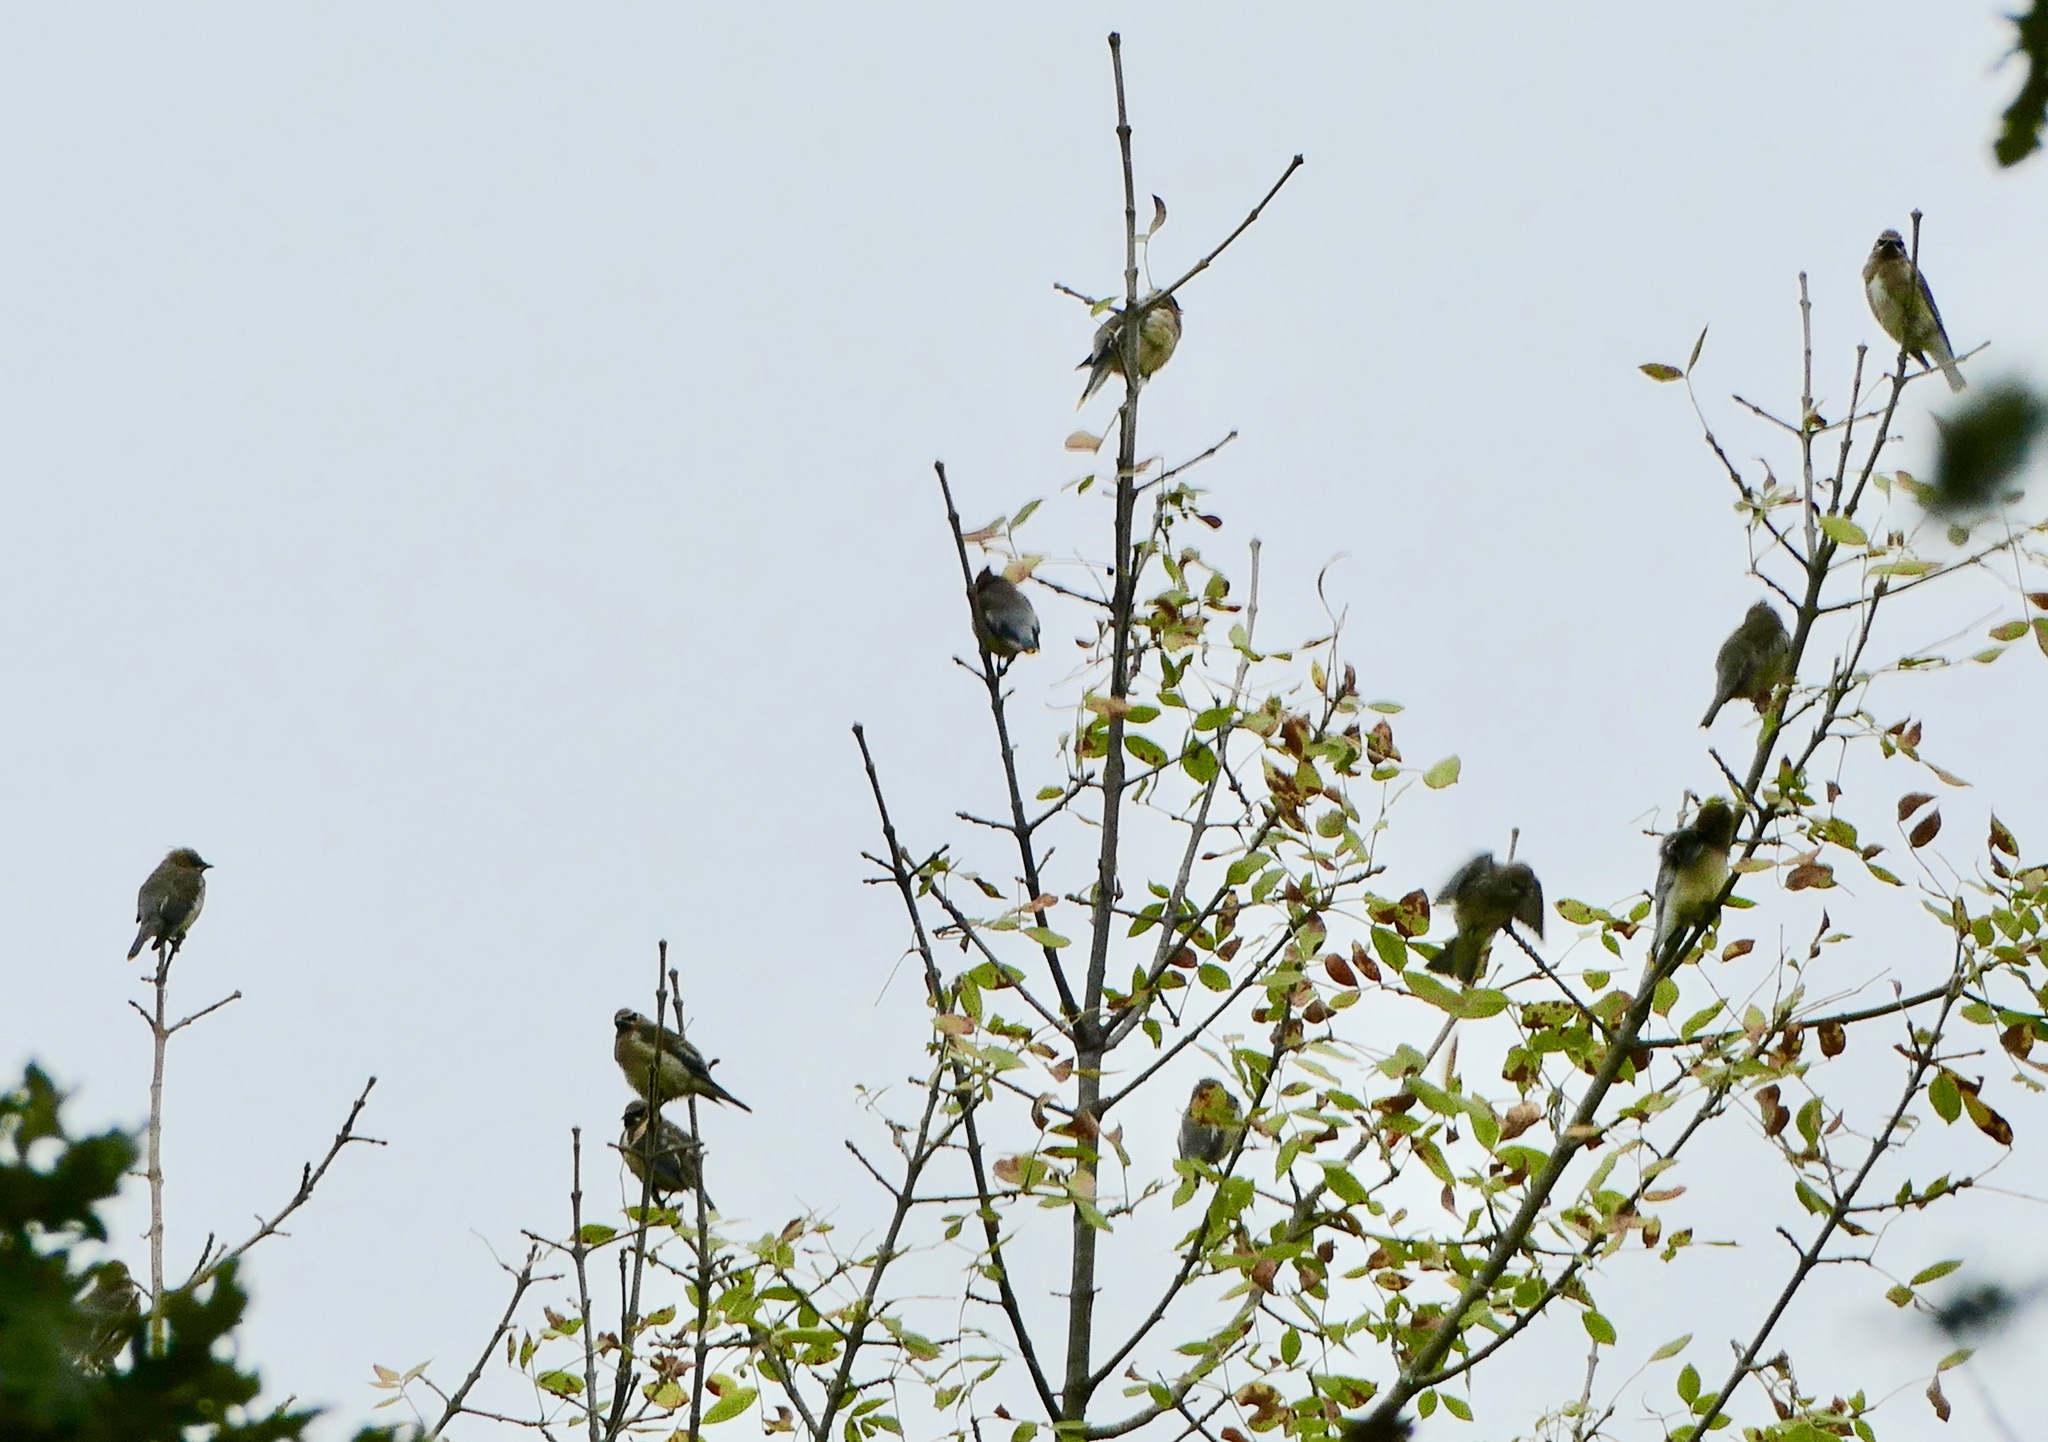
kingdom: Animalia
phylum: Chordata
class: Aves
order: Passeriformes
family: Bombycillidae
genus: Bombycilla
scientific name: Bombycilla cedrorum
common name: Cedar waxwing
